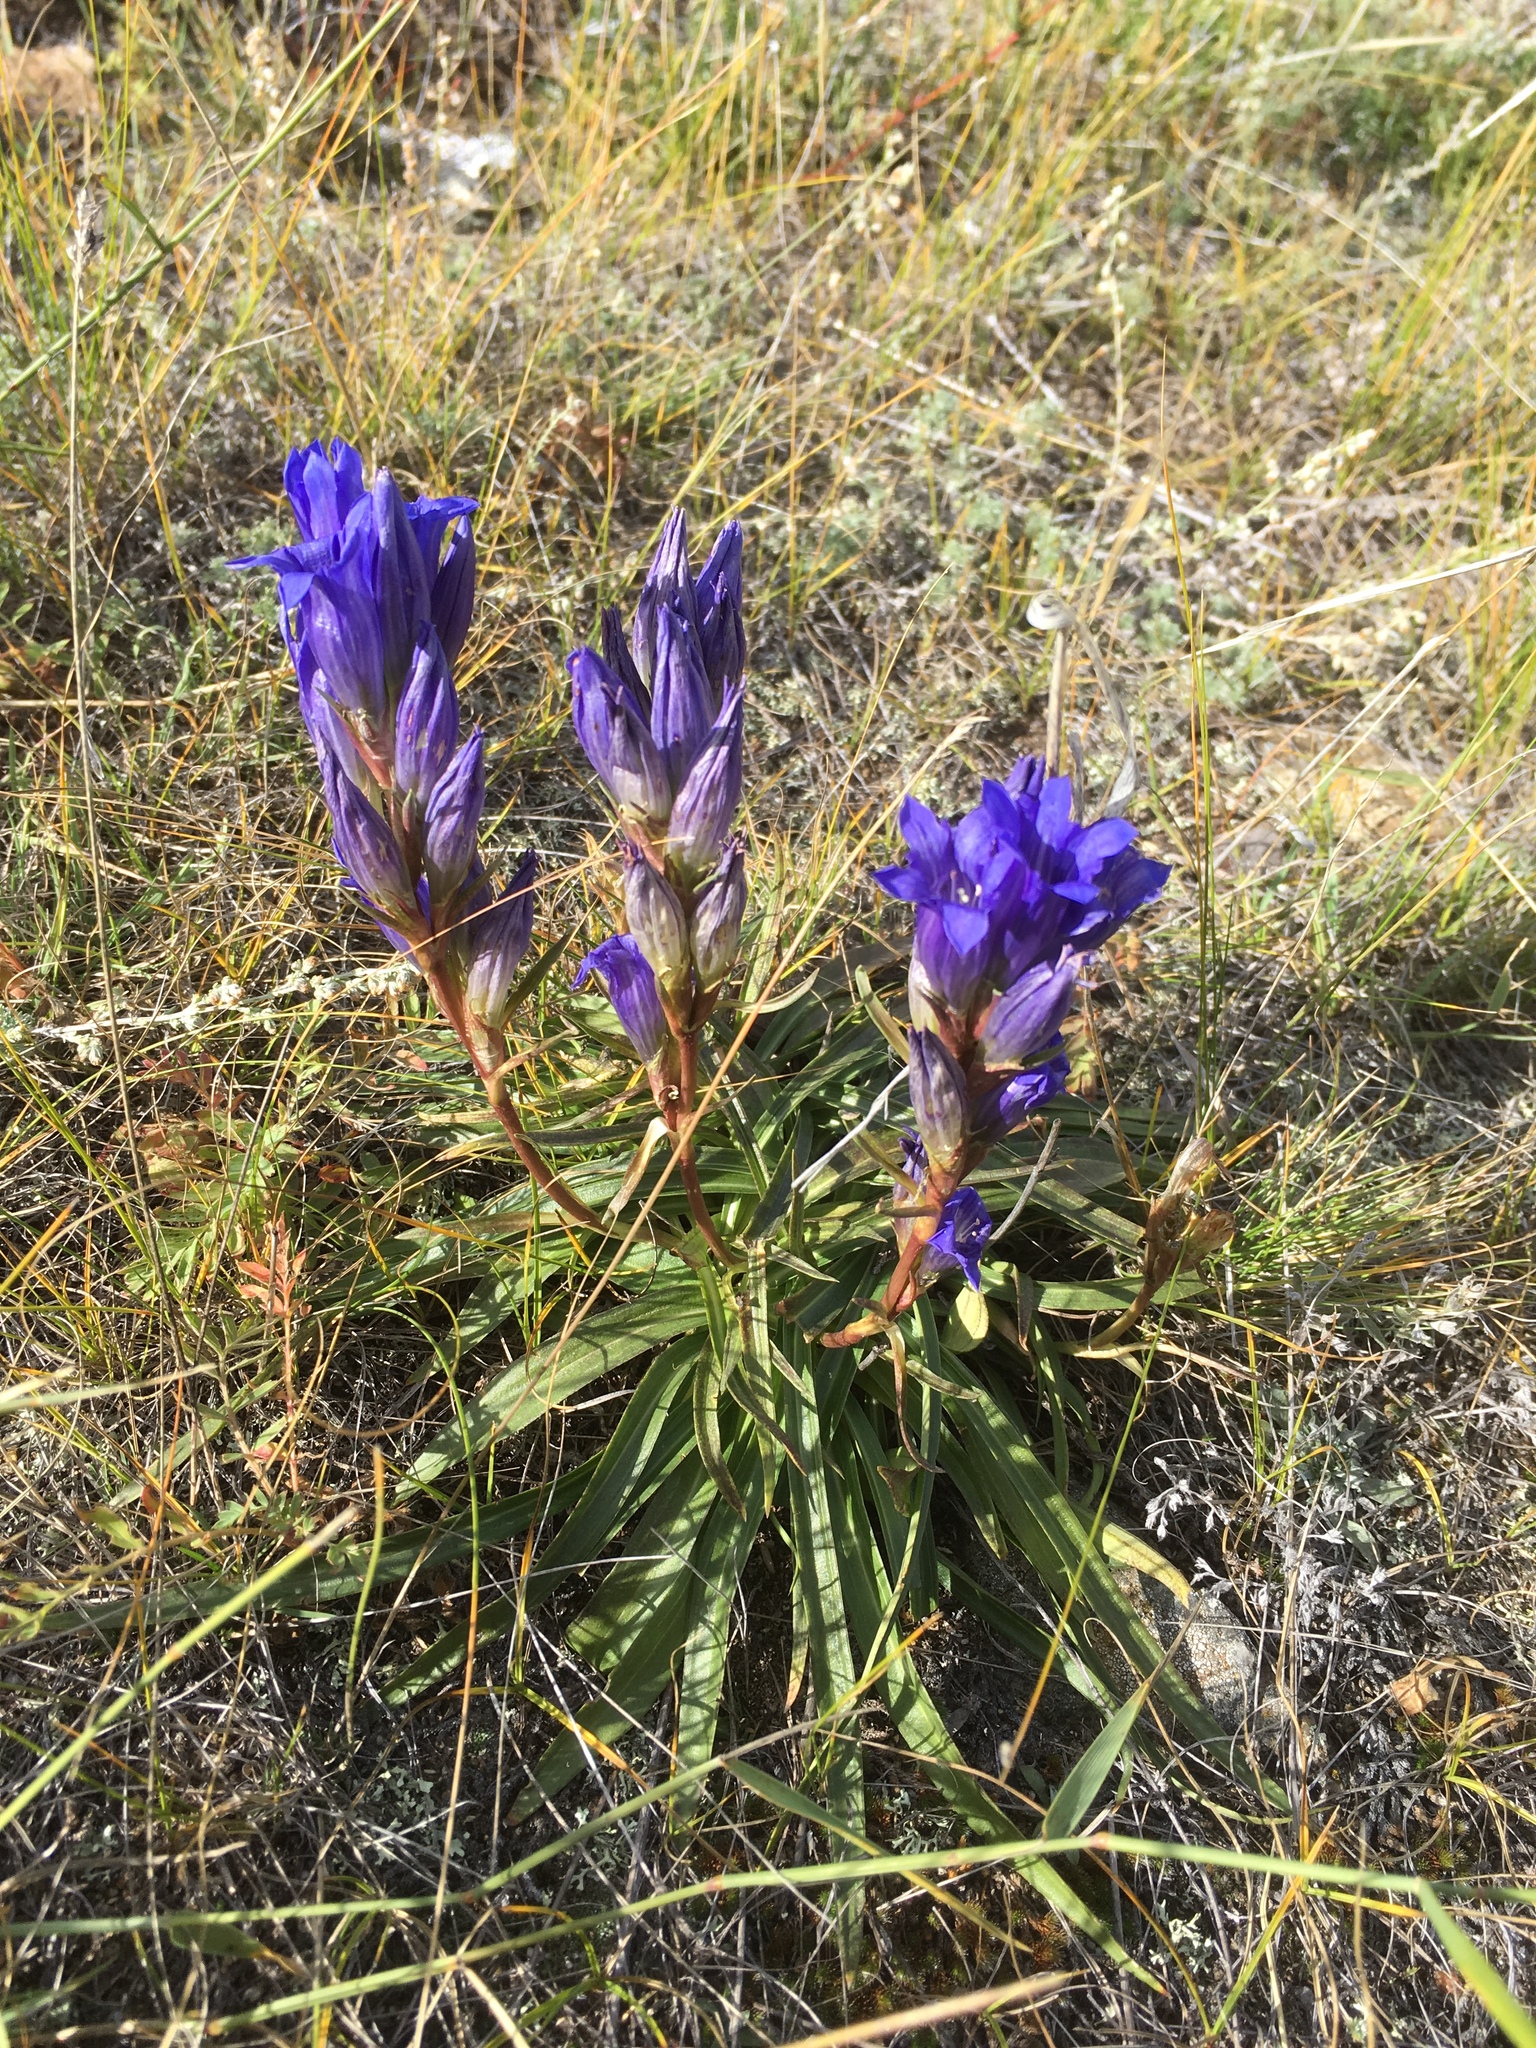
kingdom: Plantae
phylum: Tracheophyta
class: Magnoliopsida
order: Gentianales
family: Gentianaceae
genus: Gentiana
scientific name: Gentiana decumbens
